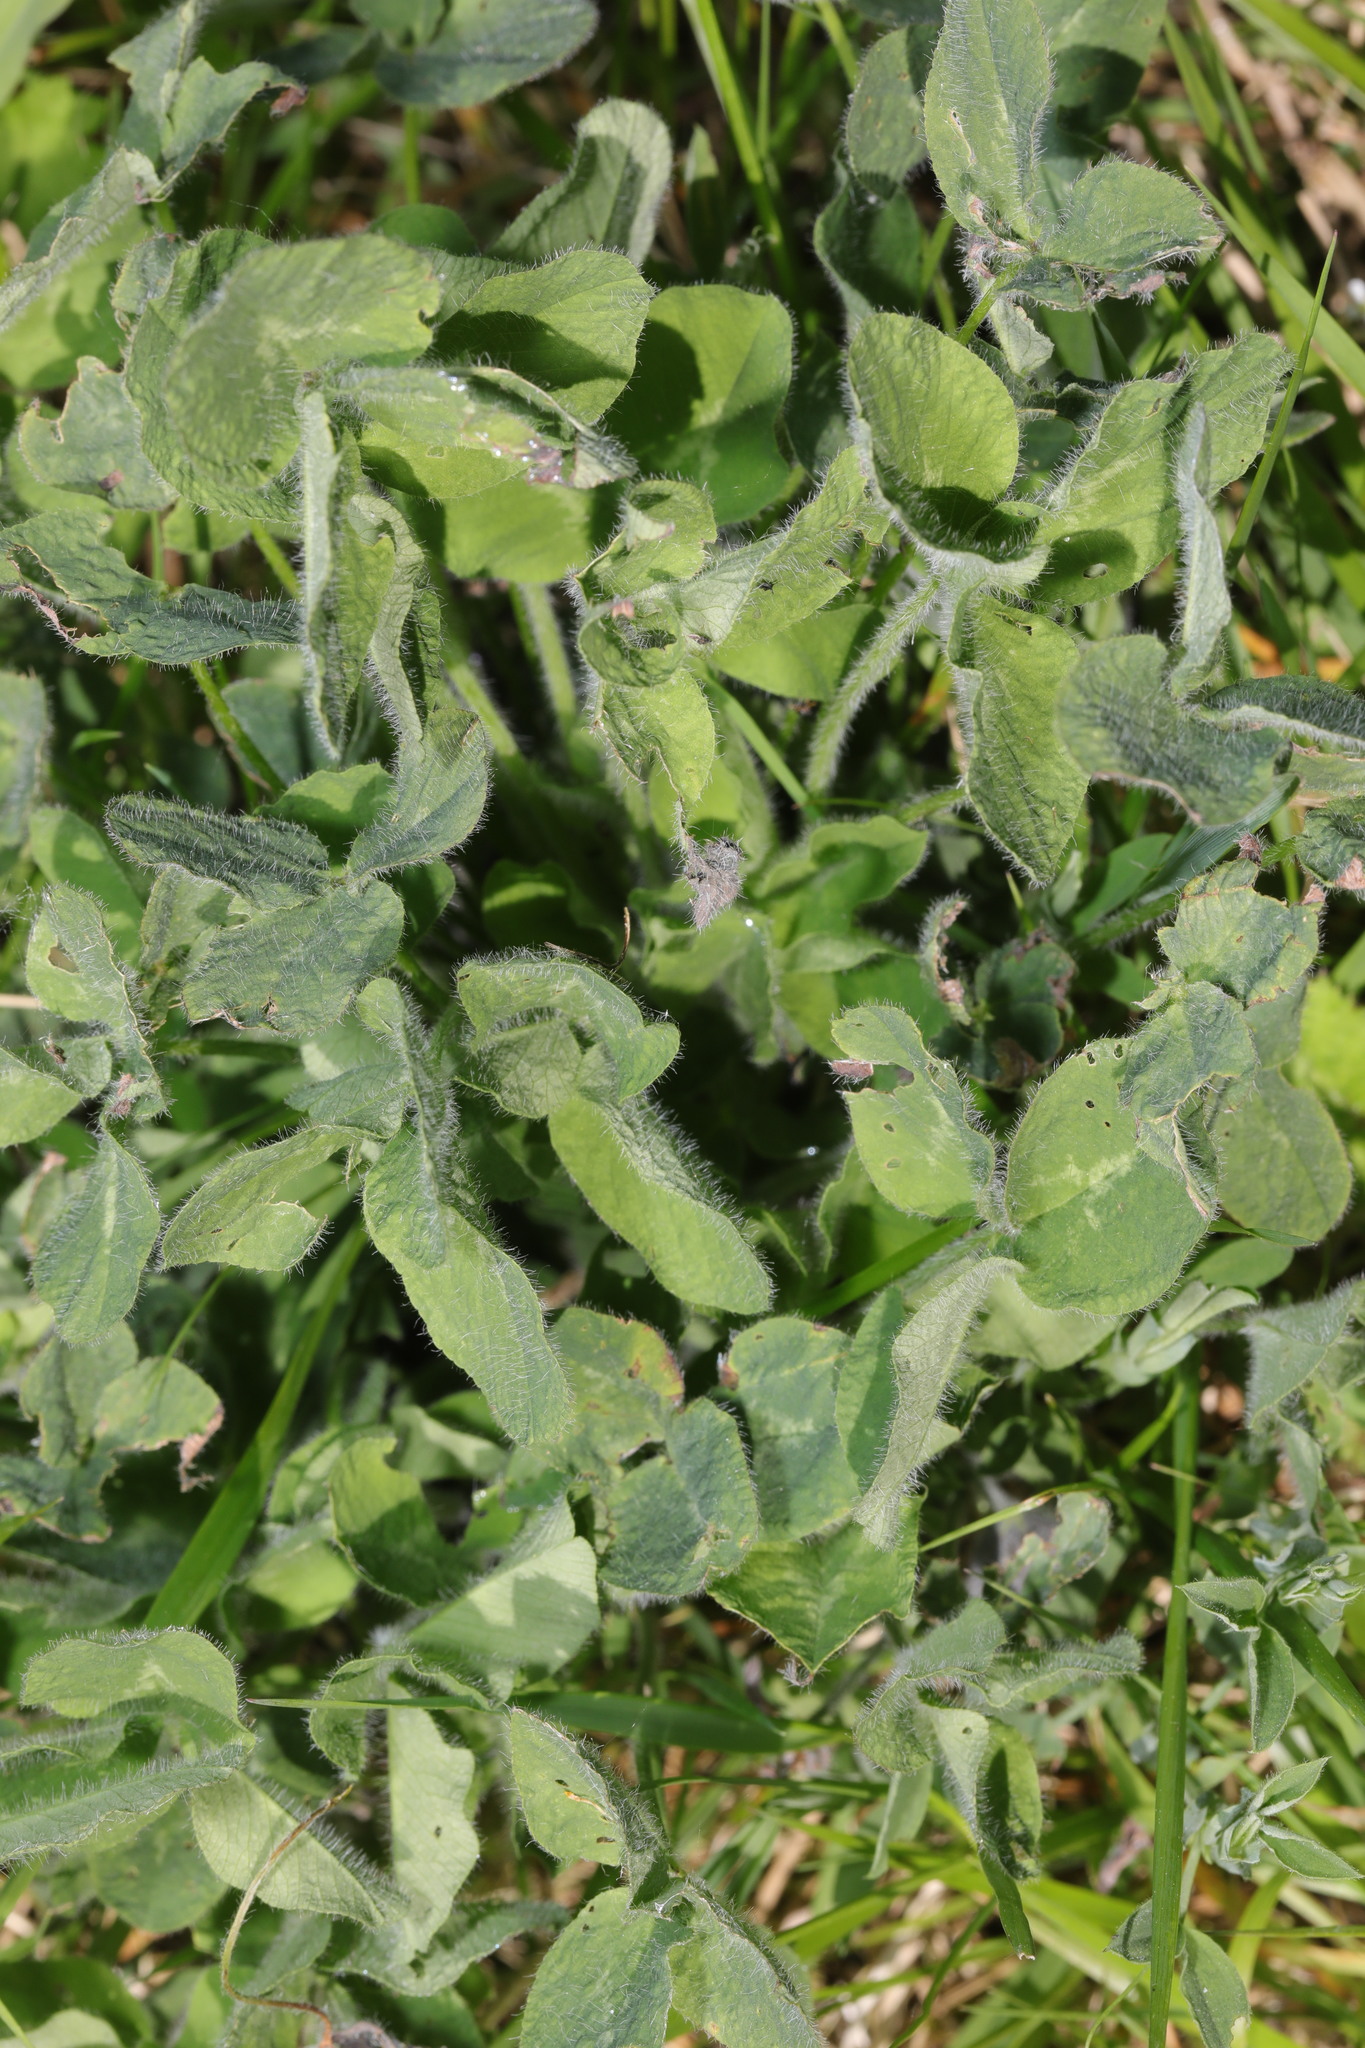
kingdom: Plantae
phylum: Tracheophyta
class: Magnoliopsida
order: Fabales
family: Fabaceae
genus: Trifolium
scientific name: Trifolium pratense
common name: Red clover
